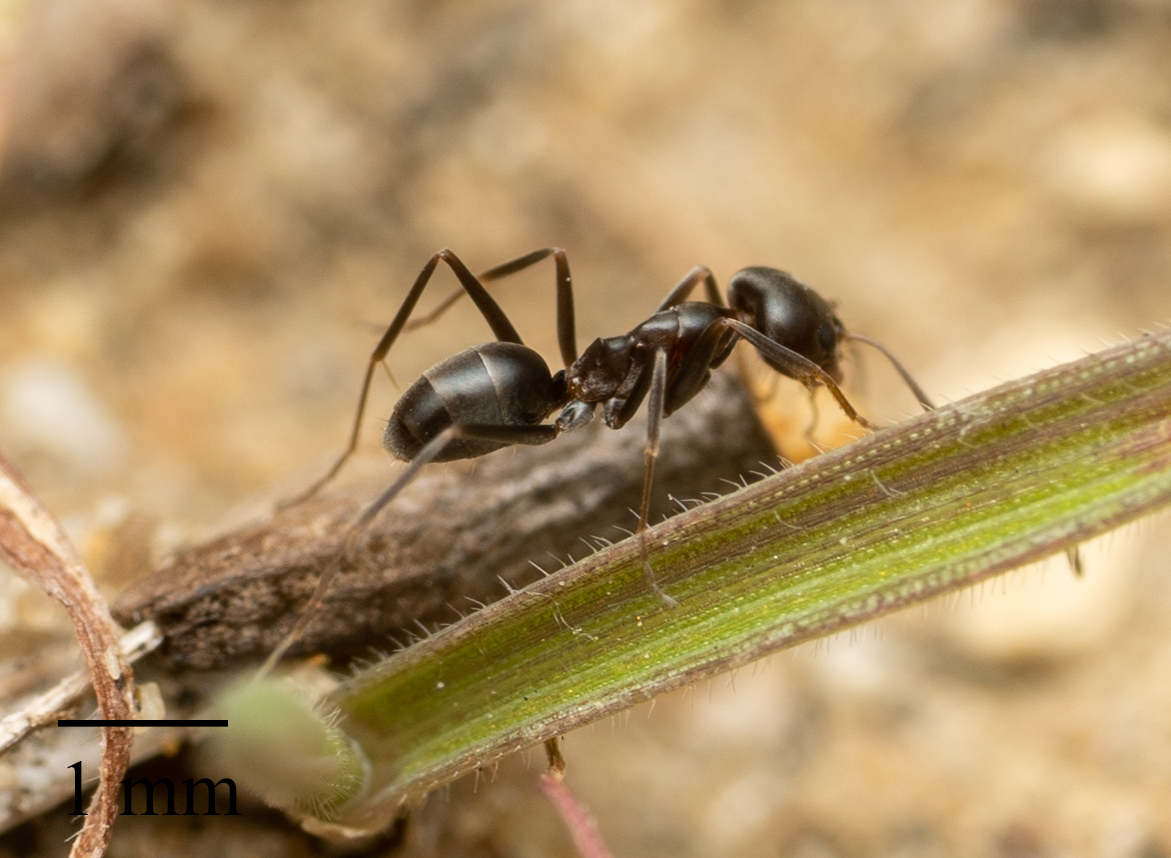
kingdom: Animalia
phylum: Arthropoda
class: Insecta
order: Hymenoptera
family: Formicidae
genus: Dorymyrmex
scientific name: Dorymyrmex insanus
